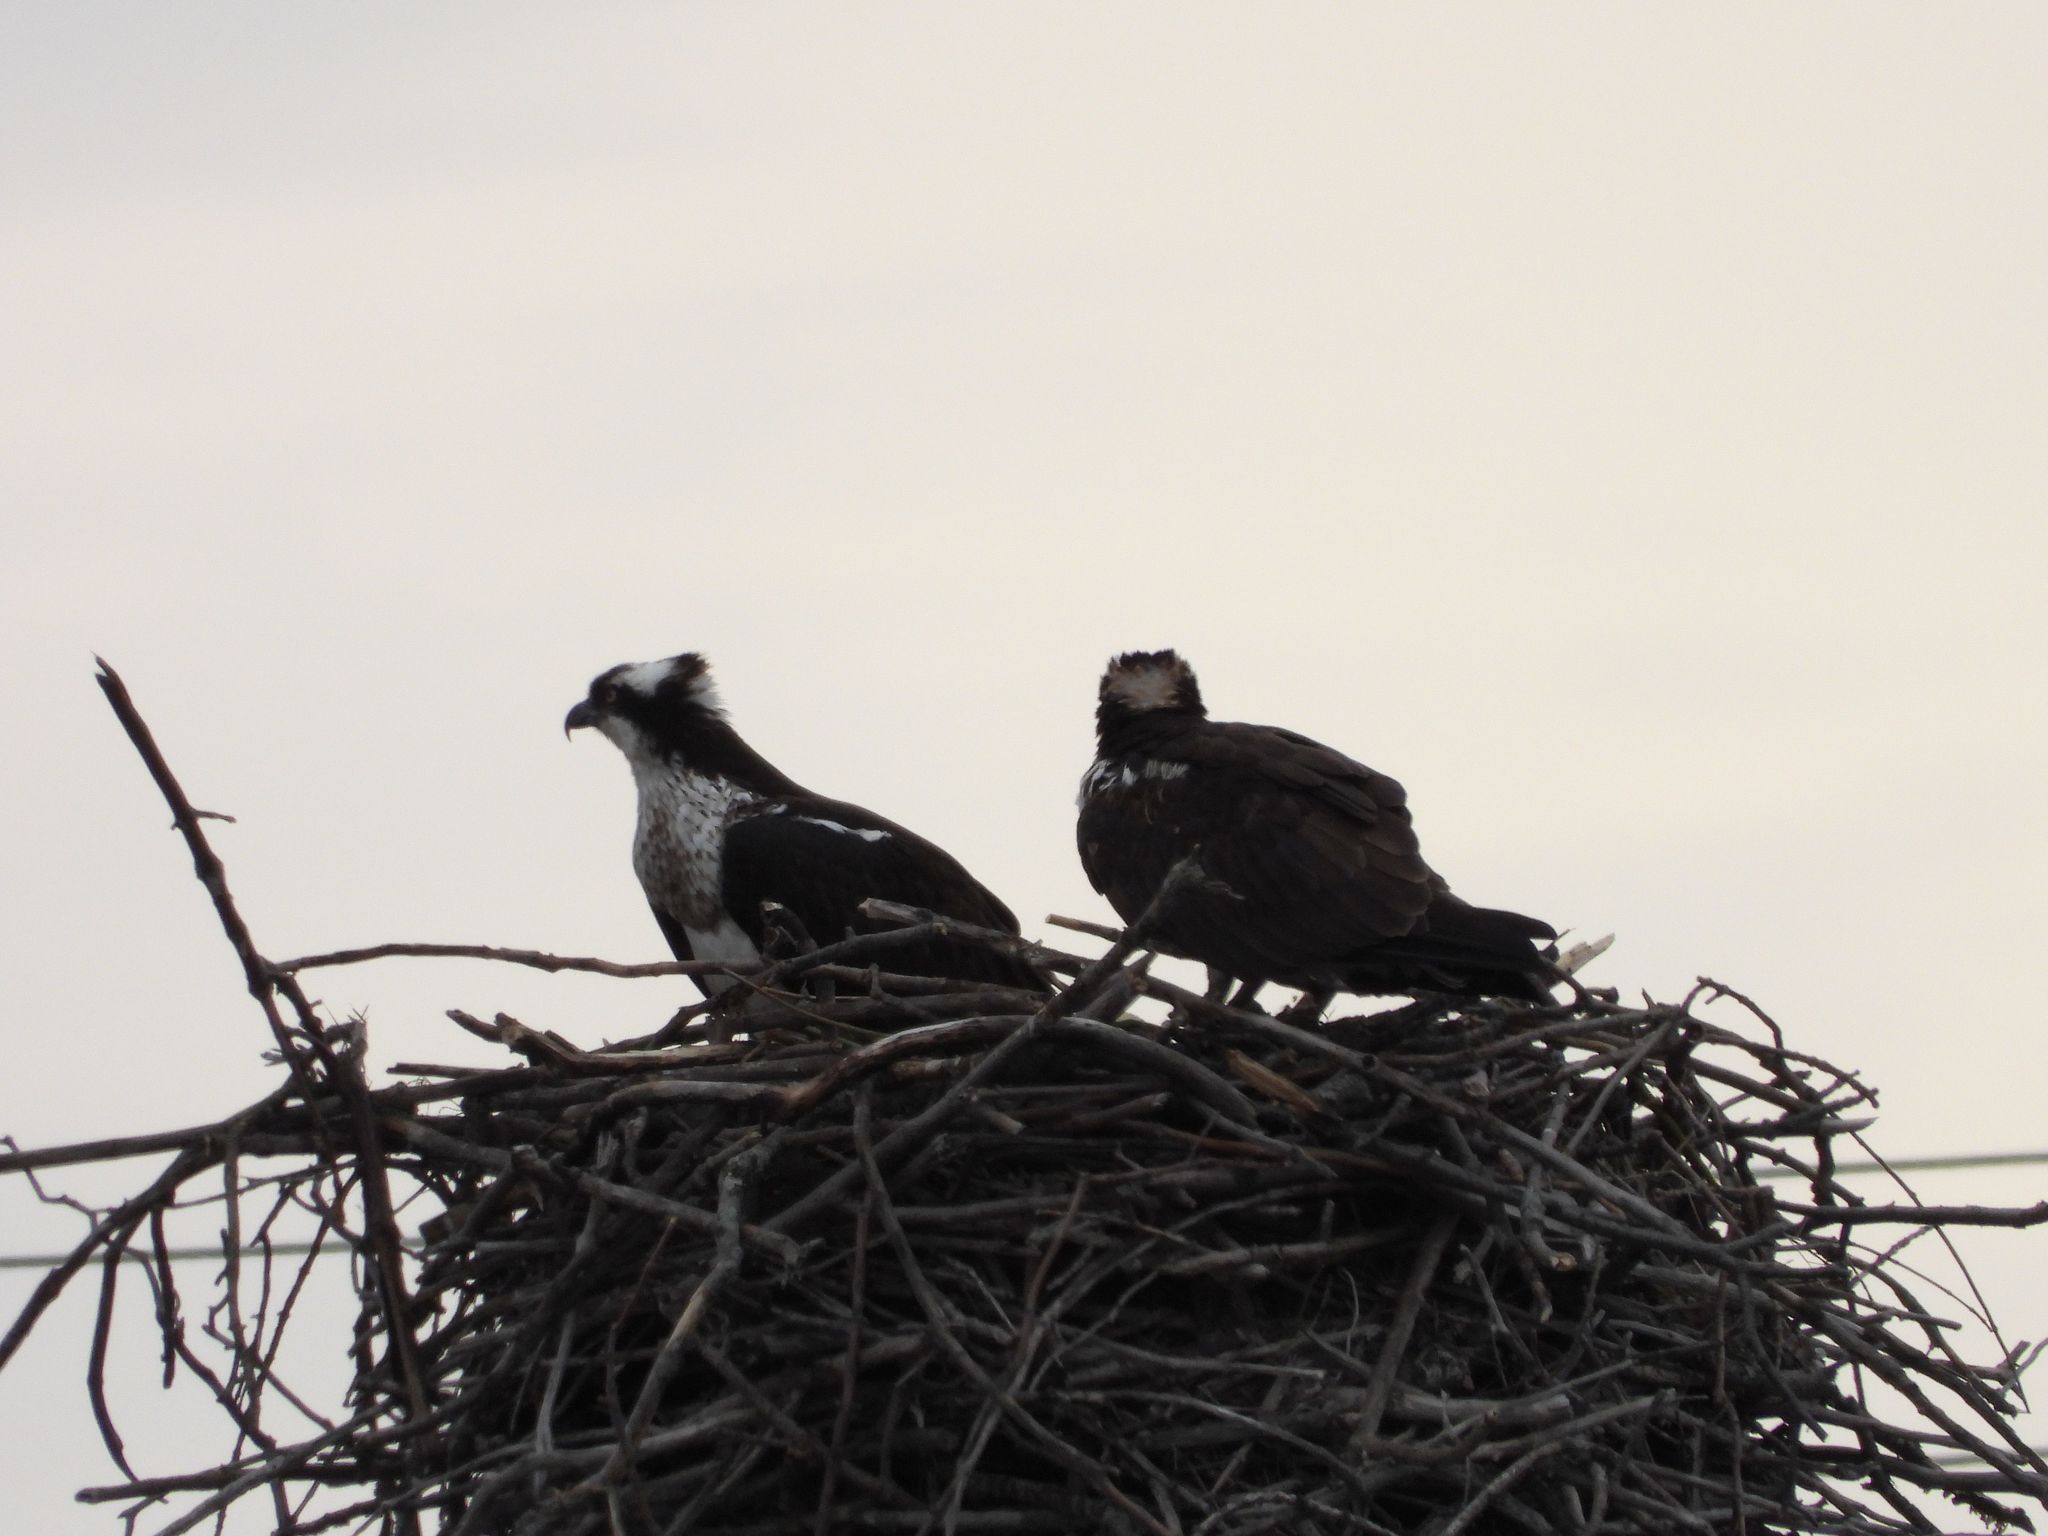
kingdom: Animalia
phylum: Chordata
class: Aves
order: Accipitriformes
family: Pandionidae
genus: Pandion
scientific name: Pandion haliaetus
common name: Osprey
